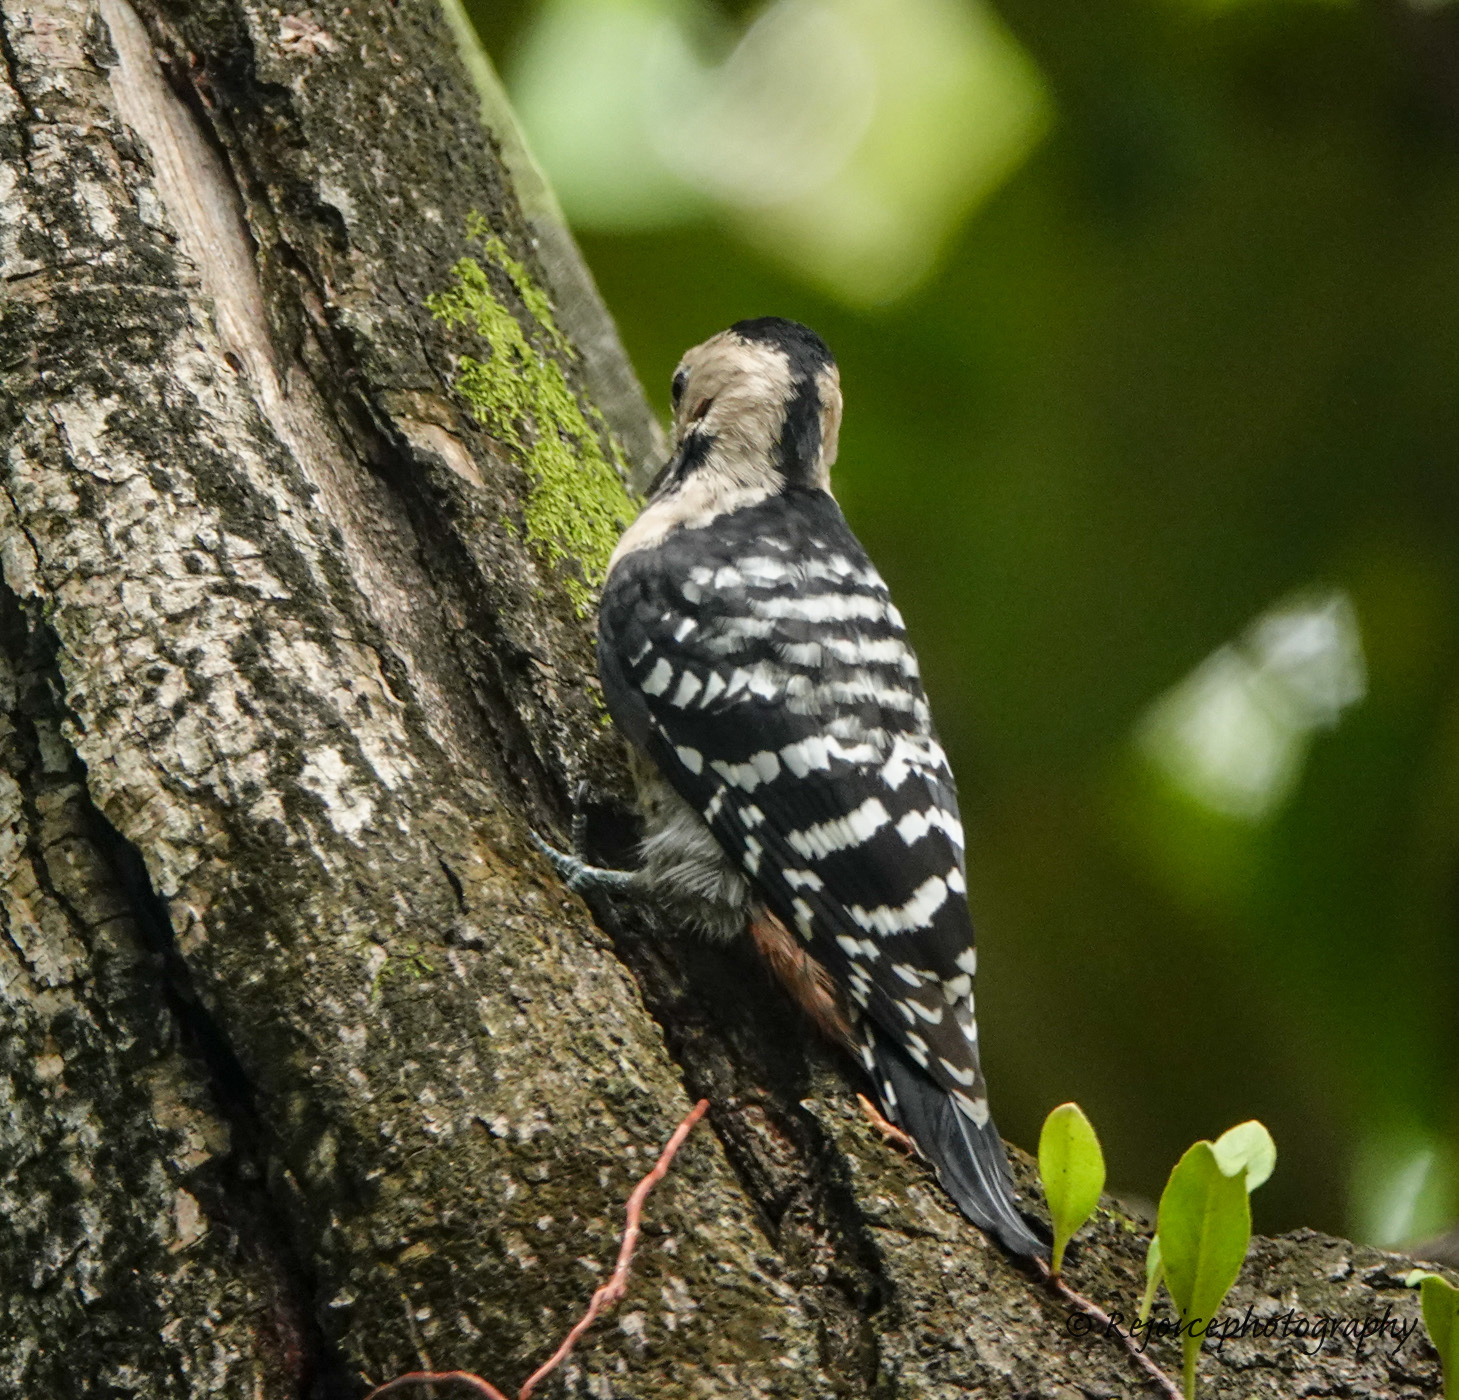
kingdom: Animalia
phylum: Chordata
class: Aves
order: Piciformes
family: Picidae
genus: Dendrocopos
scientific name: Dendrocopos macei
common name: Fulvous-breasted woodpecker
